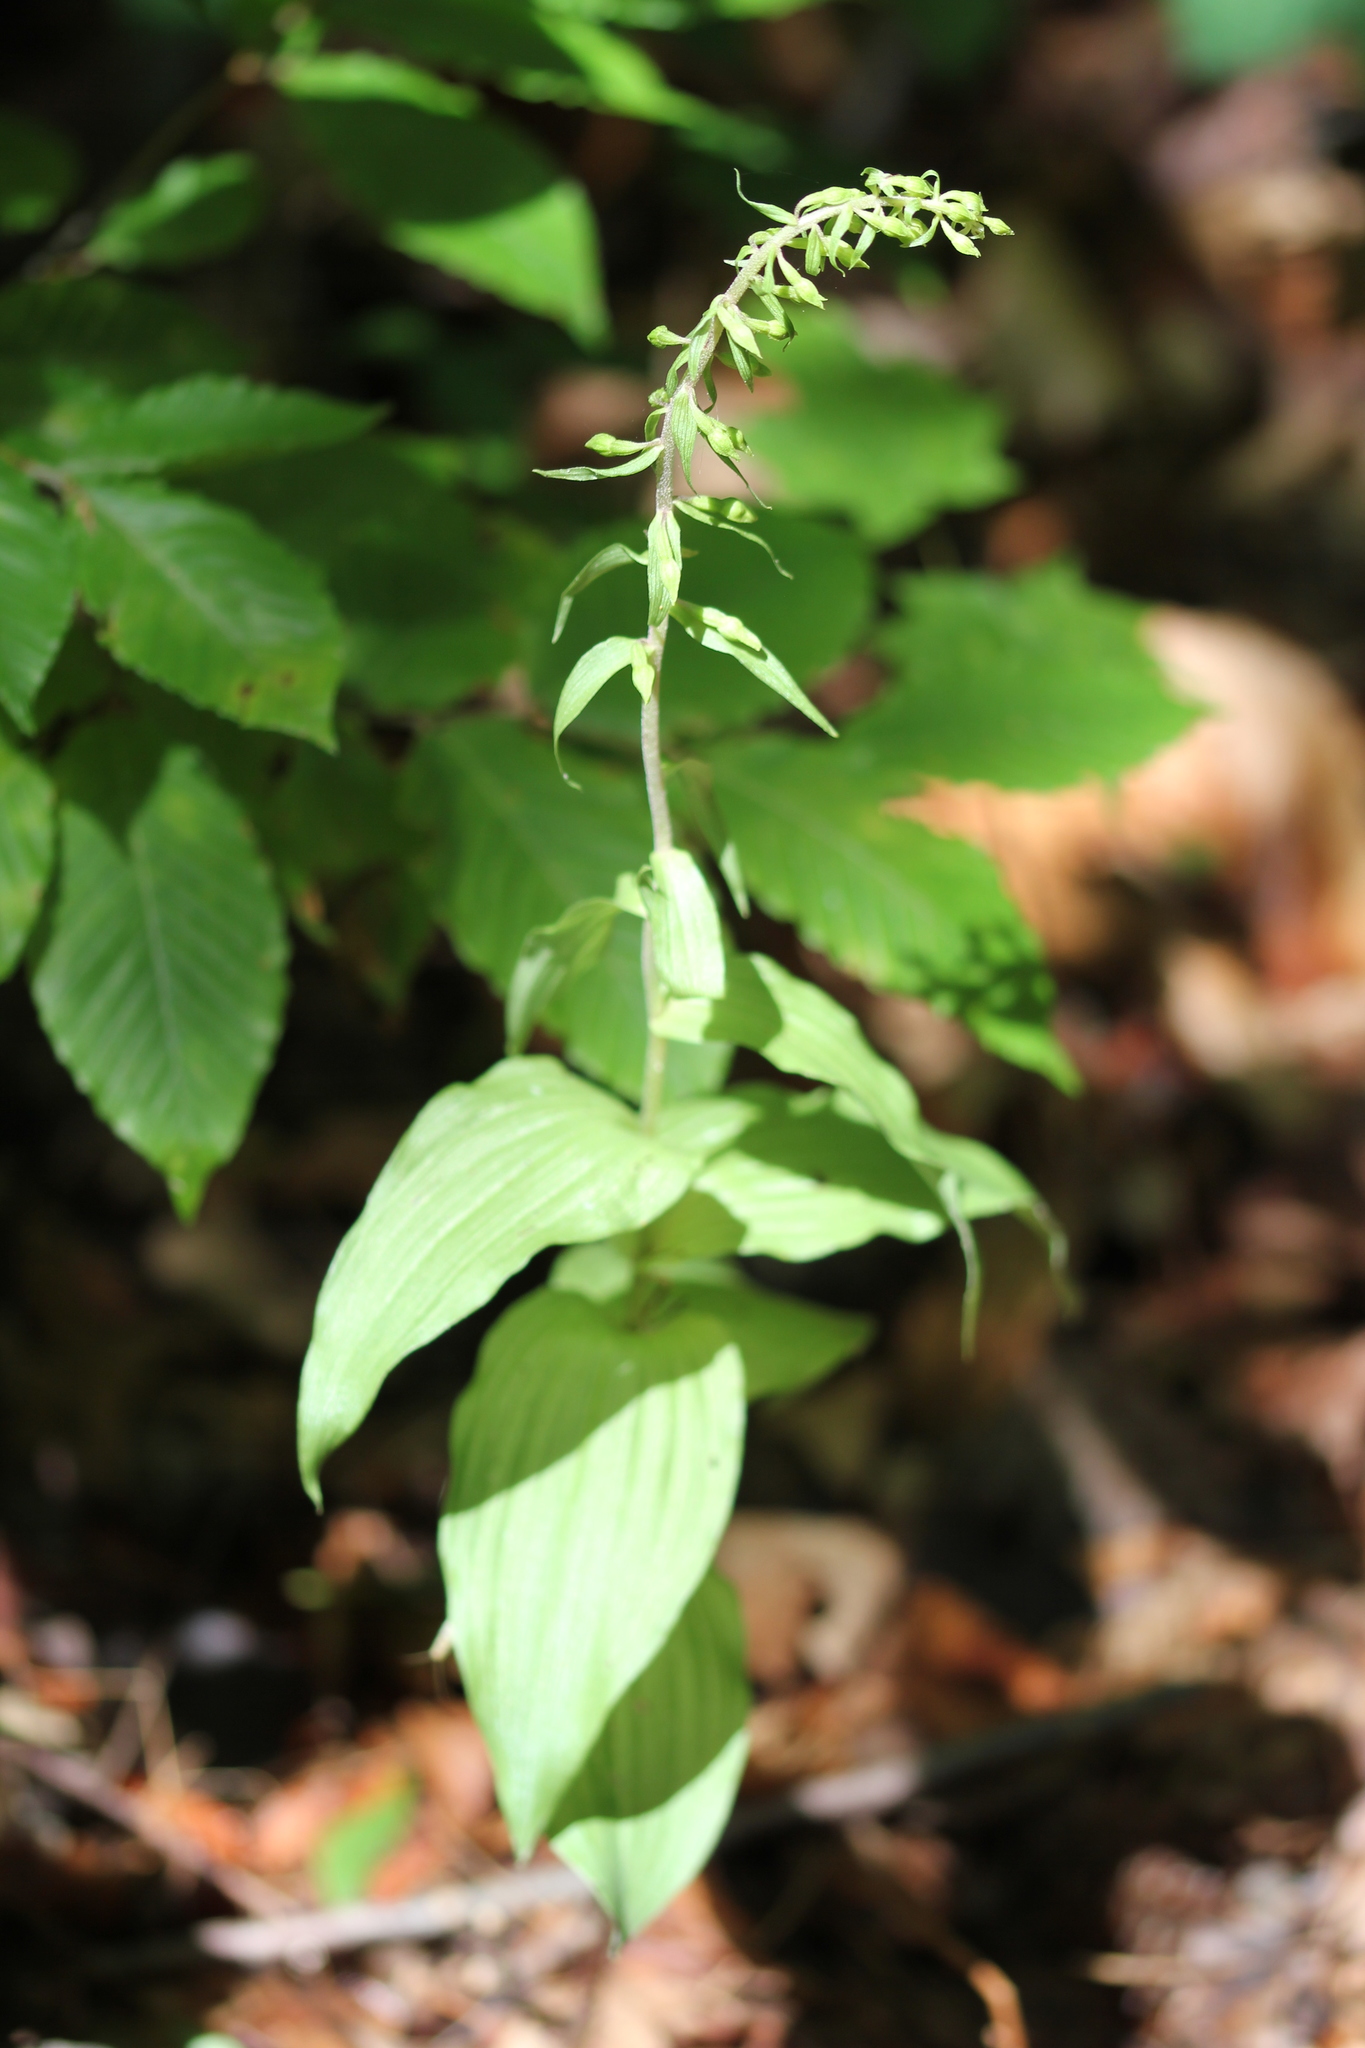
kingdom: Plantae
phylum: Tracheophyta
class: Liliopsida
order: Asparagales
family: Orchidaceae
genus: Epipactis
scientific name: Epipactis helleborine
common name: Broad-leaved helleborine
